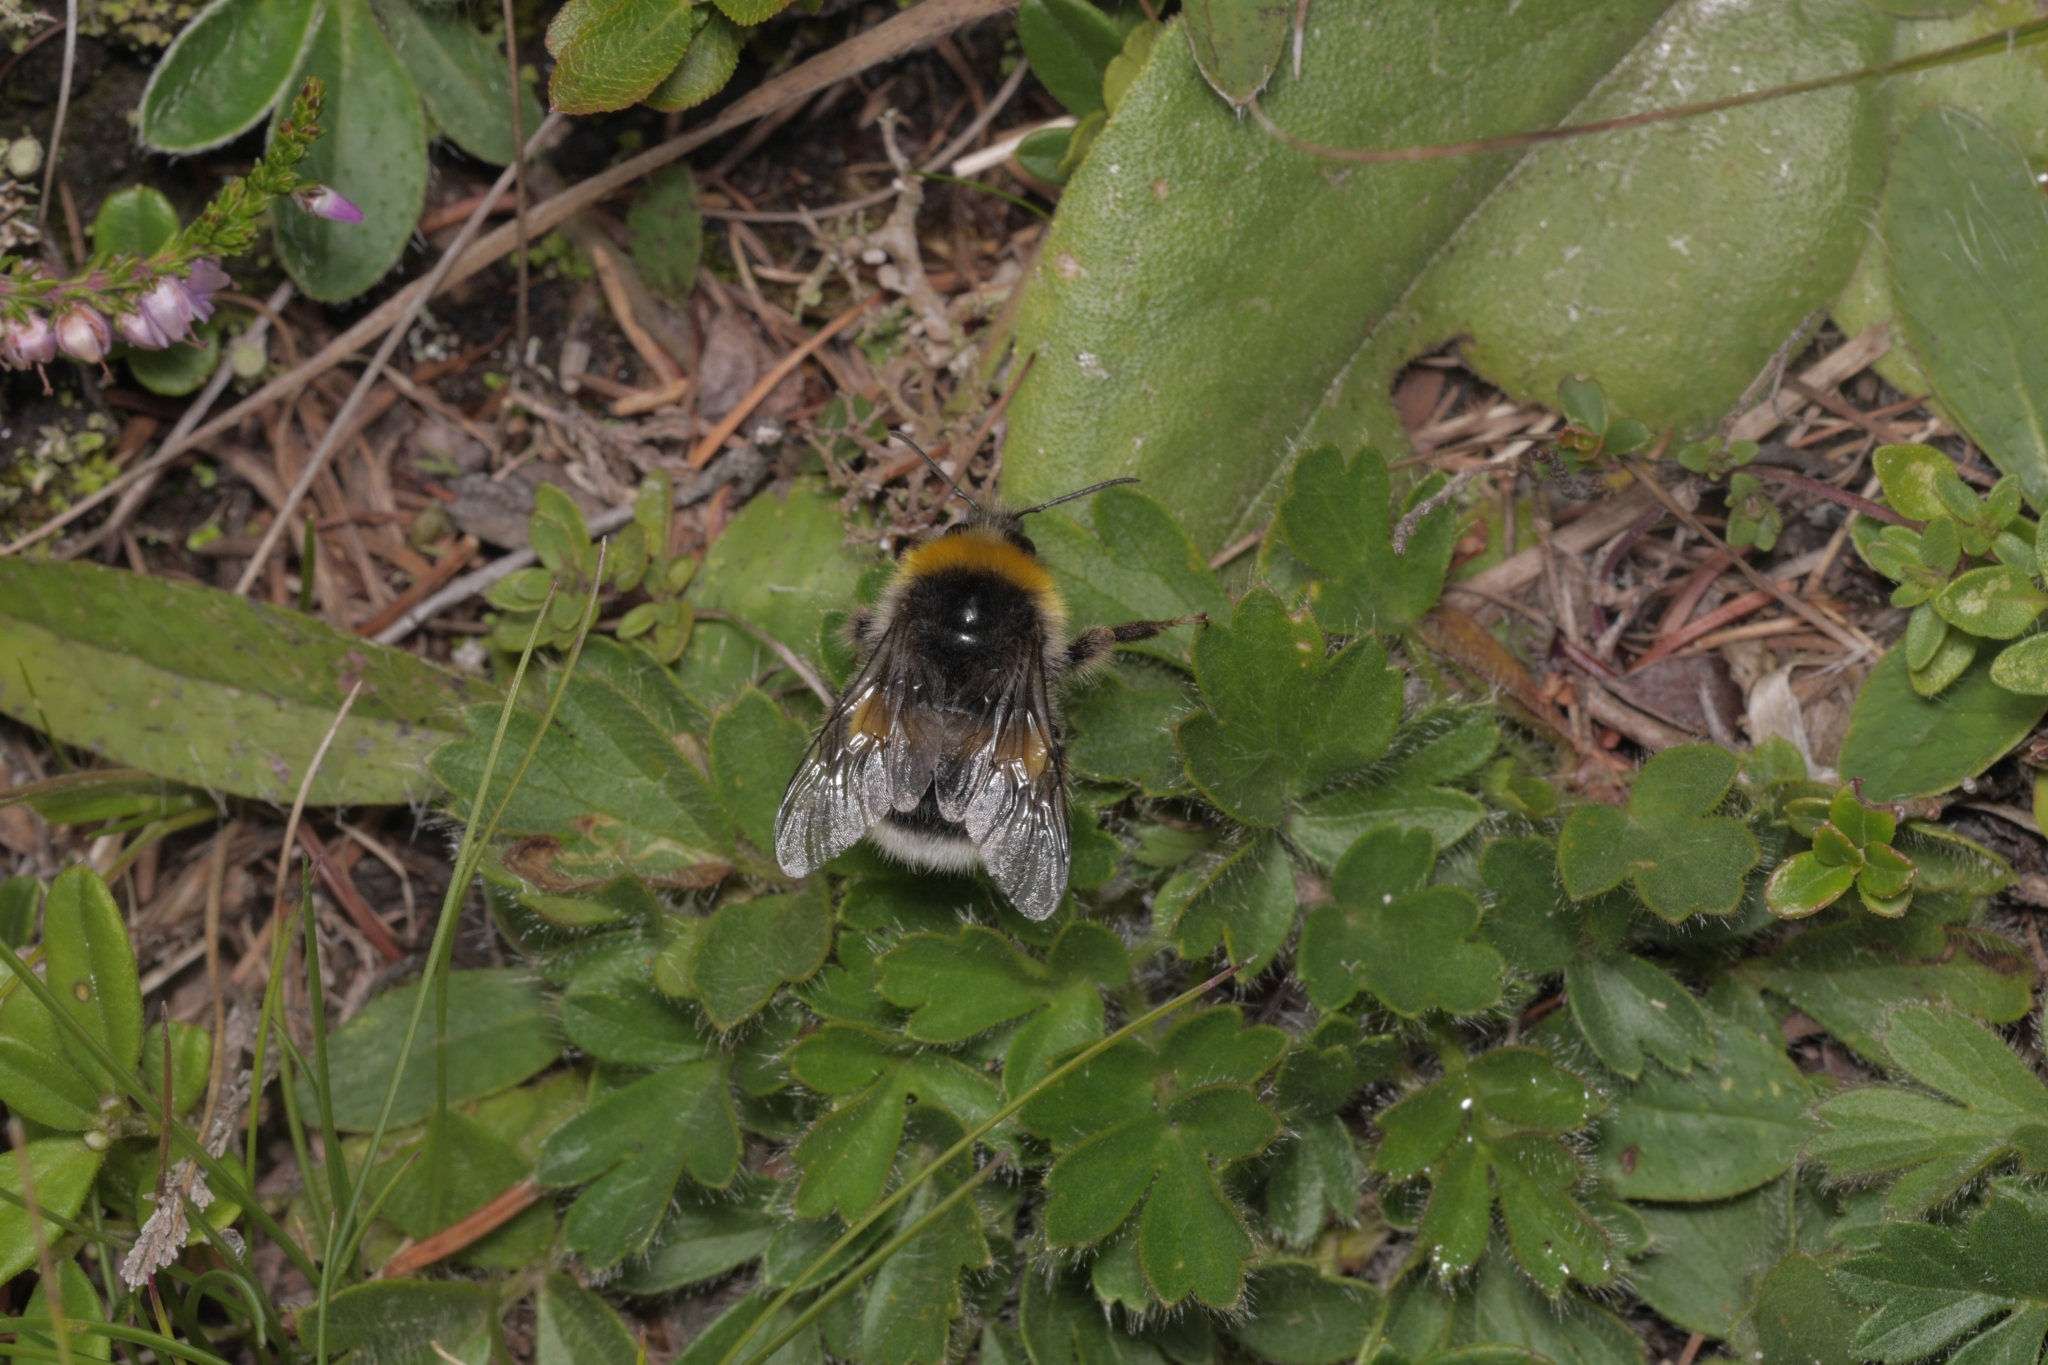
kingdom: Animalia
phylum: Arthropoda
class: Insecta
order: Hymenoptera
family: Apidae
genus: Bombus
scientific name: Bombus lucorum
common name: White-tailed bumblebee
